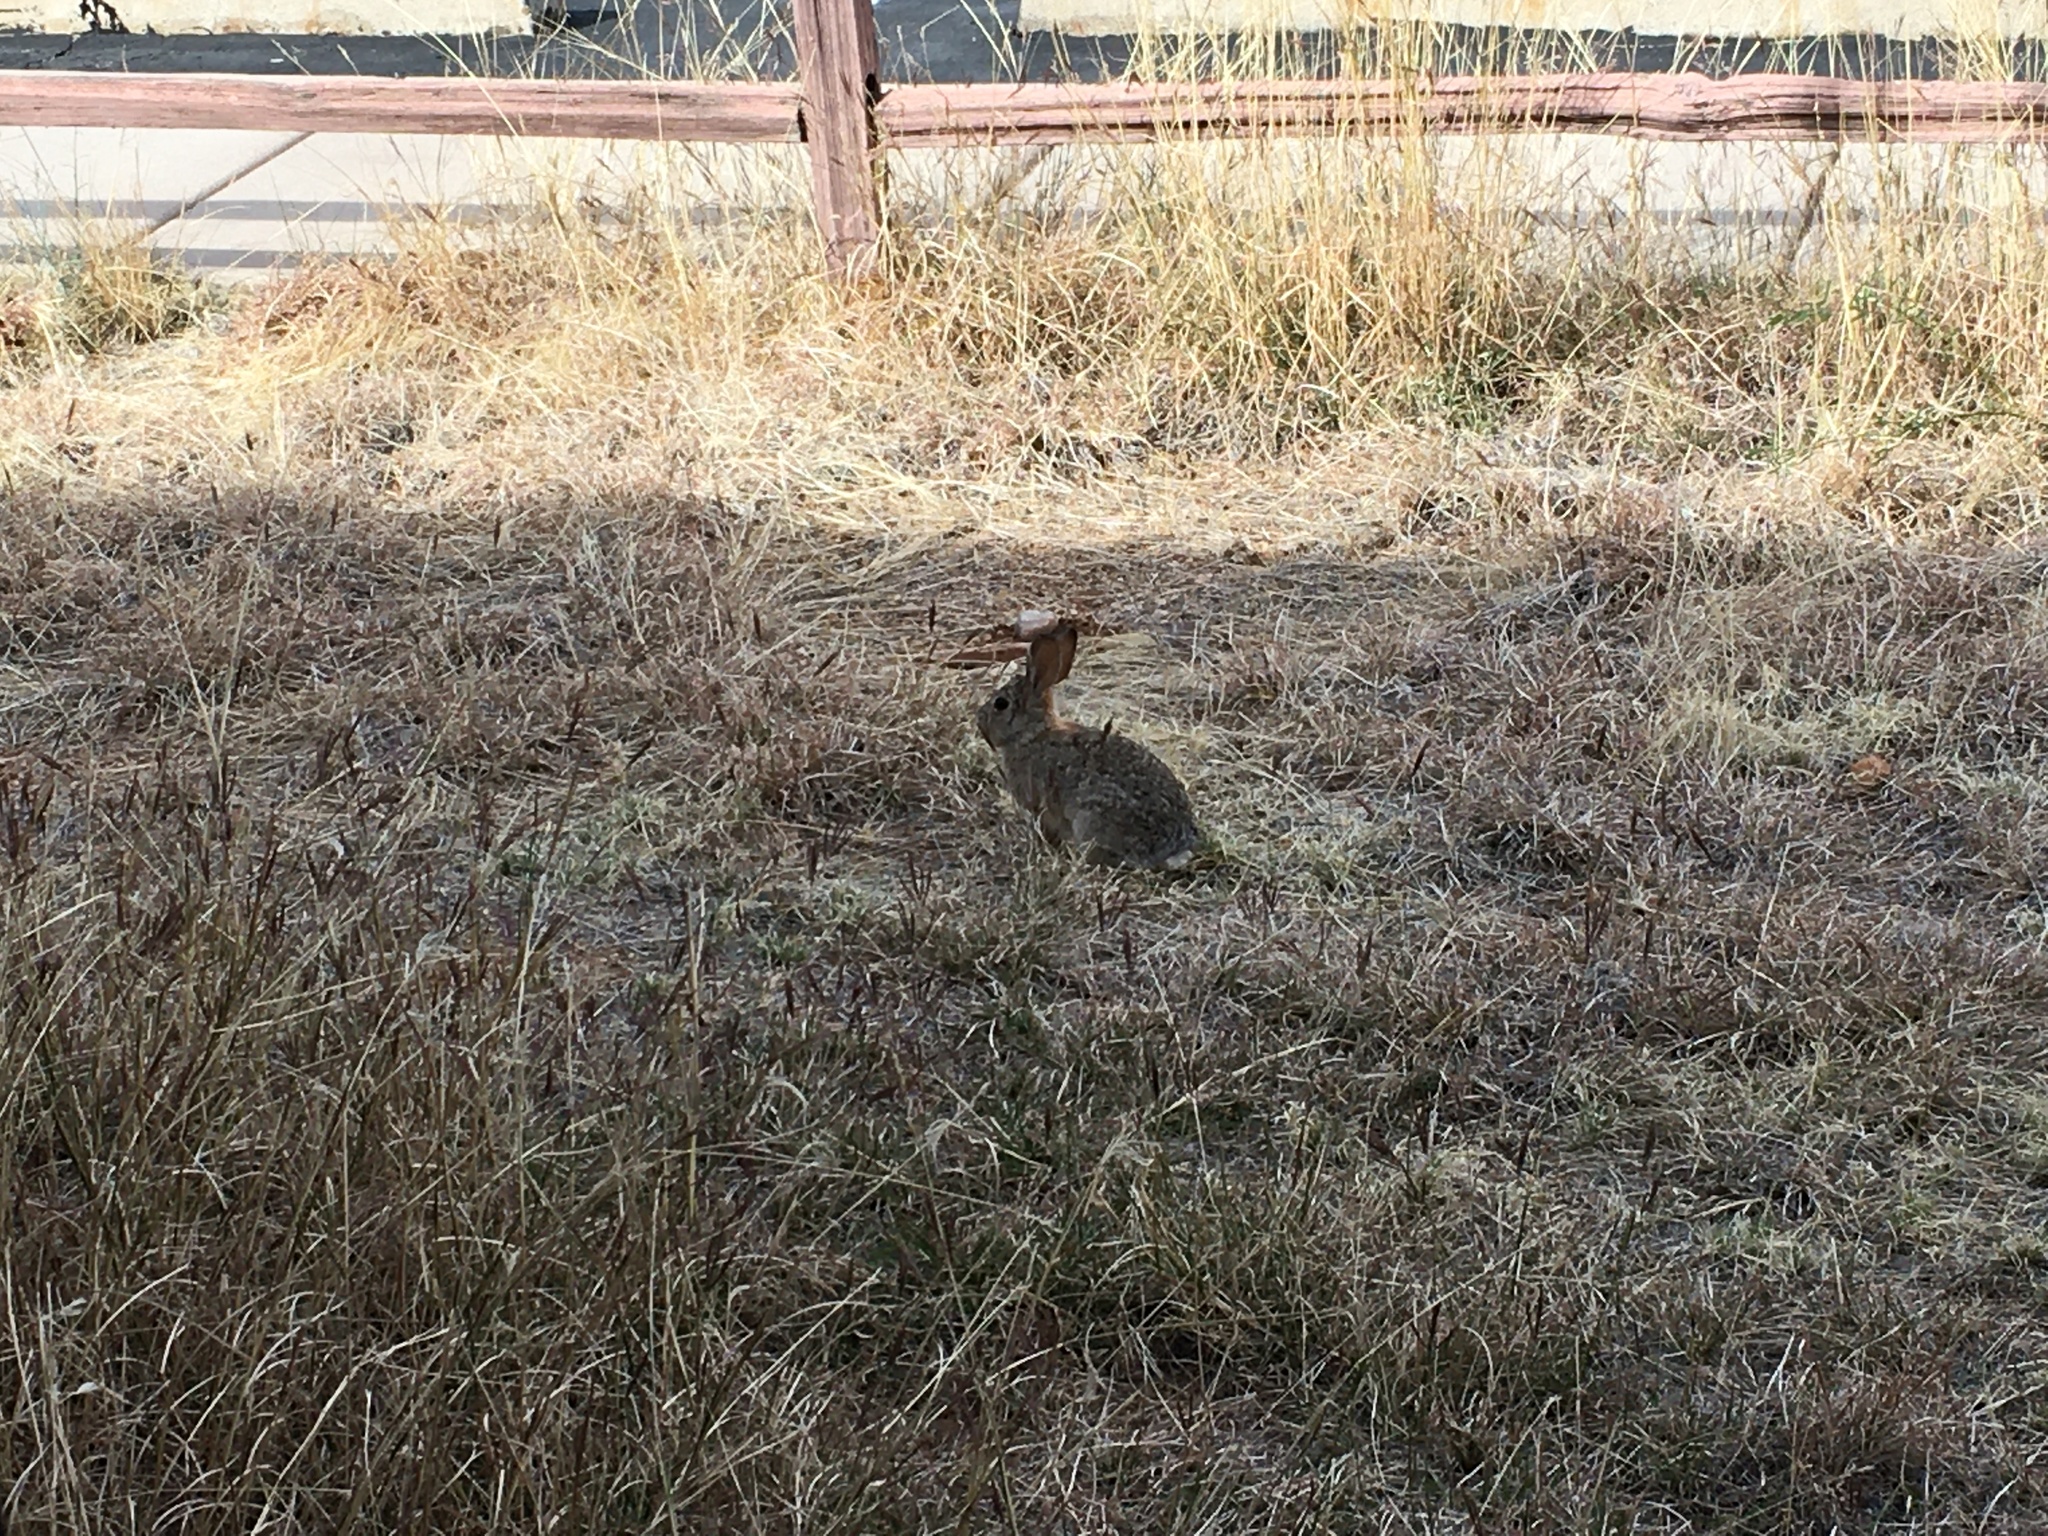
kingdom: Animalia
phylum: Chordata
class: Mammalia
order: Lagomorpha
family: Leporidae
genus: Sylvilagus
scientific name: Sylvilagus audubonii
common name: Desert cottontail
